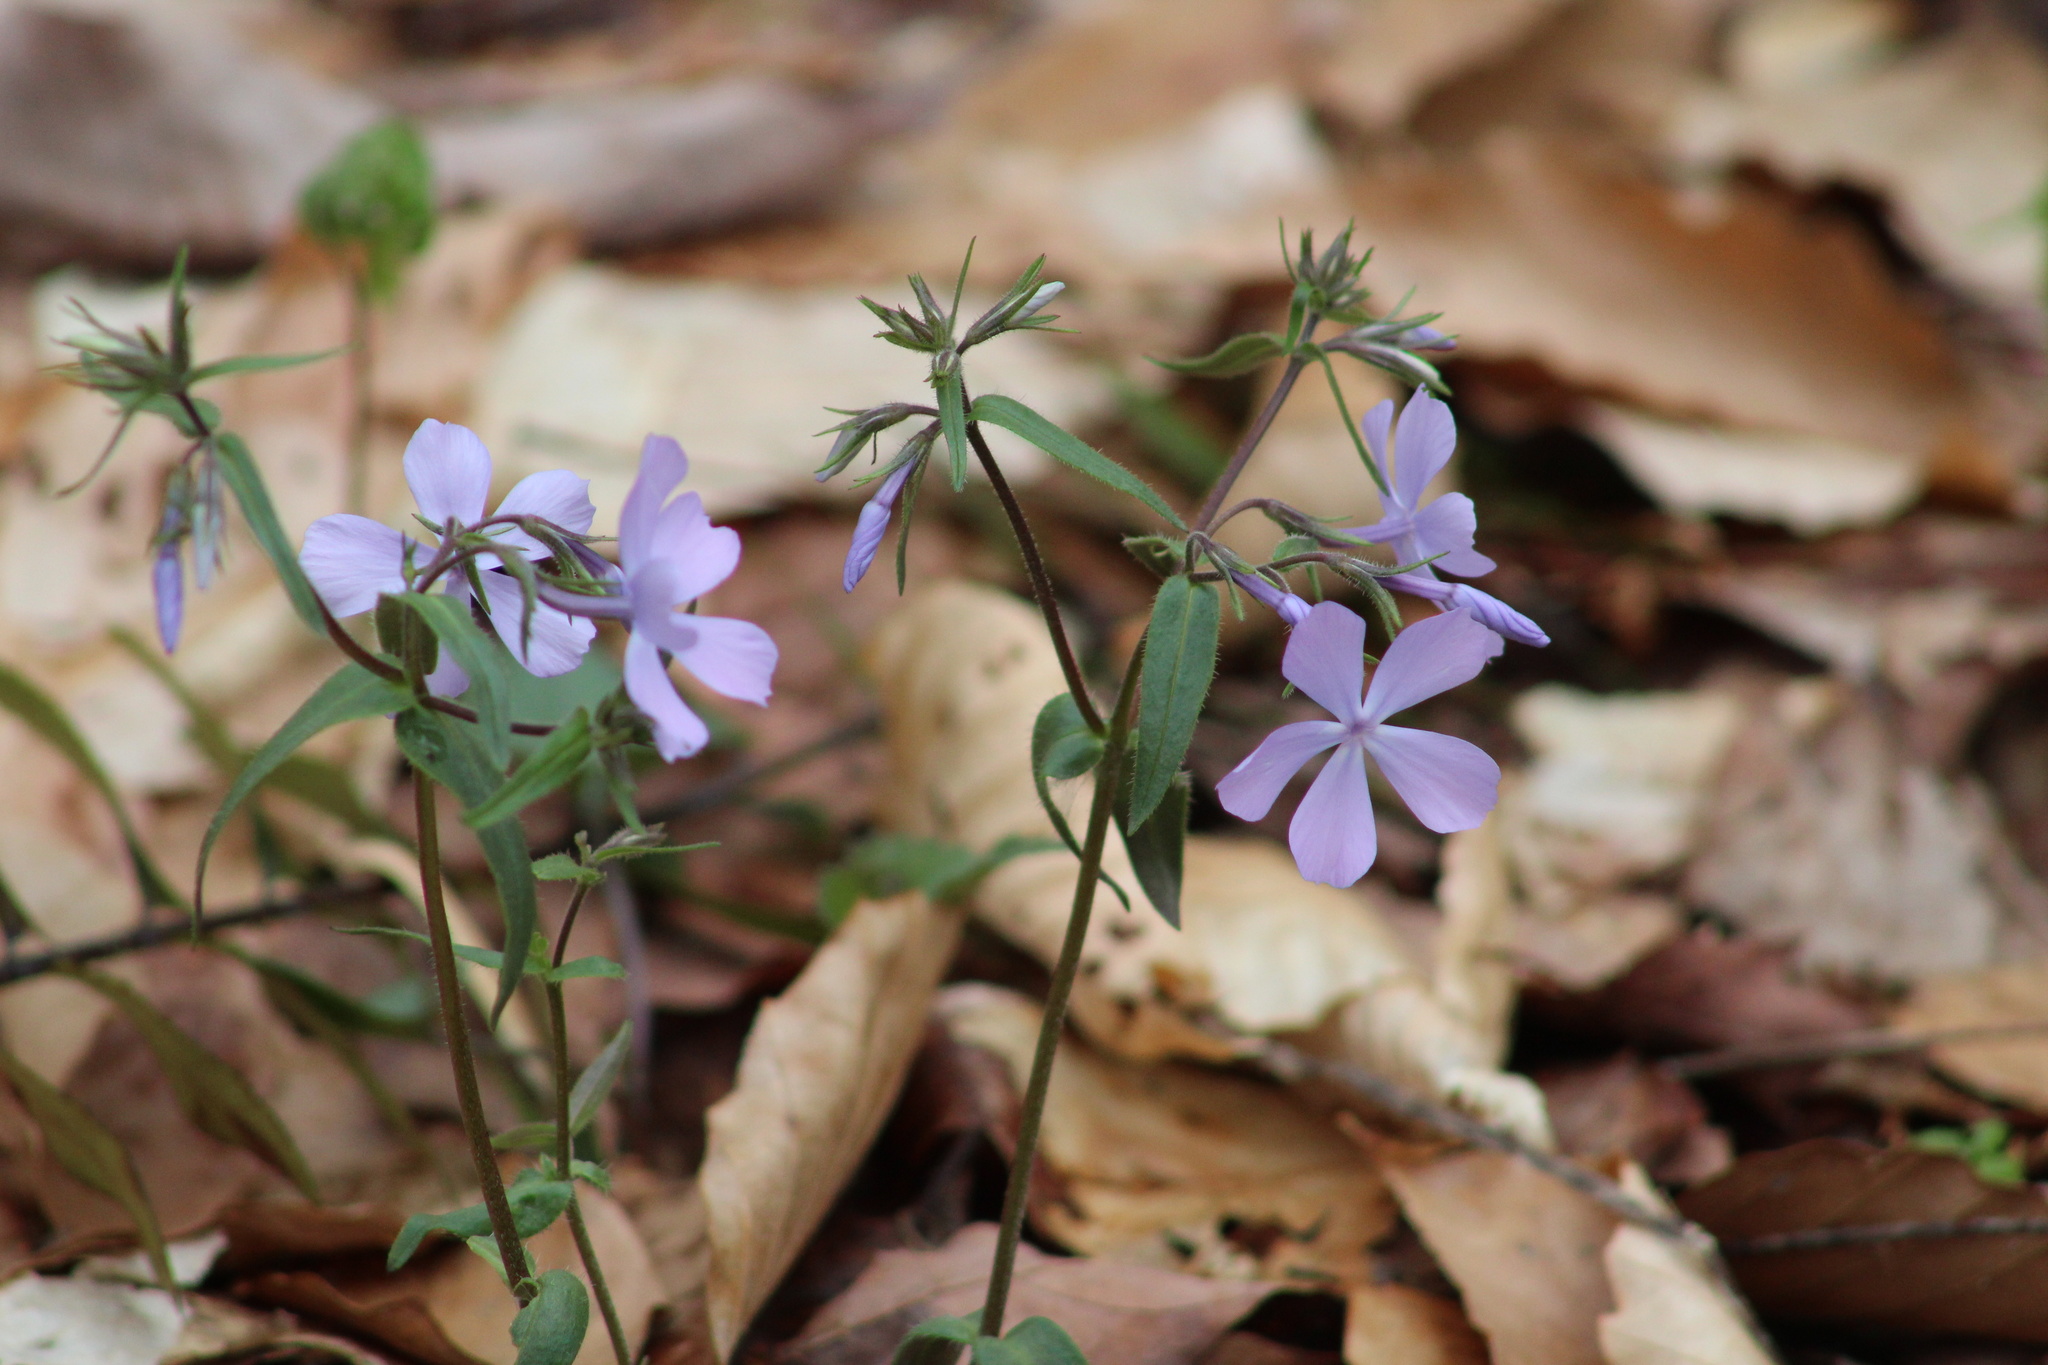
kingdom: Plantae
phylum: Tracheophyta
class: Magnoliopsida
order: Ericales
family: Polemoniaceae
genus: Phlox
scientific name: Phlox divaricata
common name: Blue phlox
